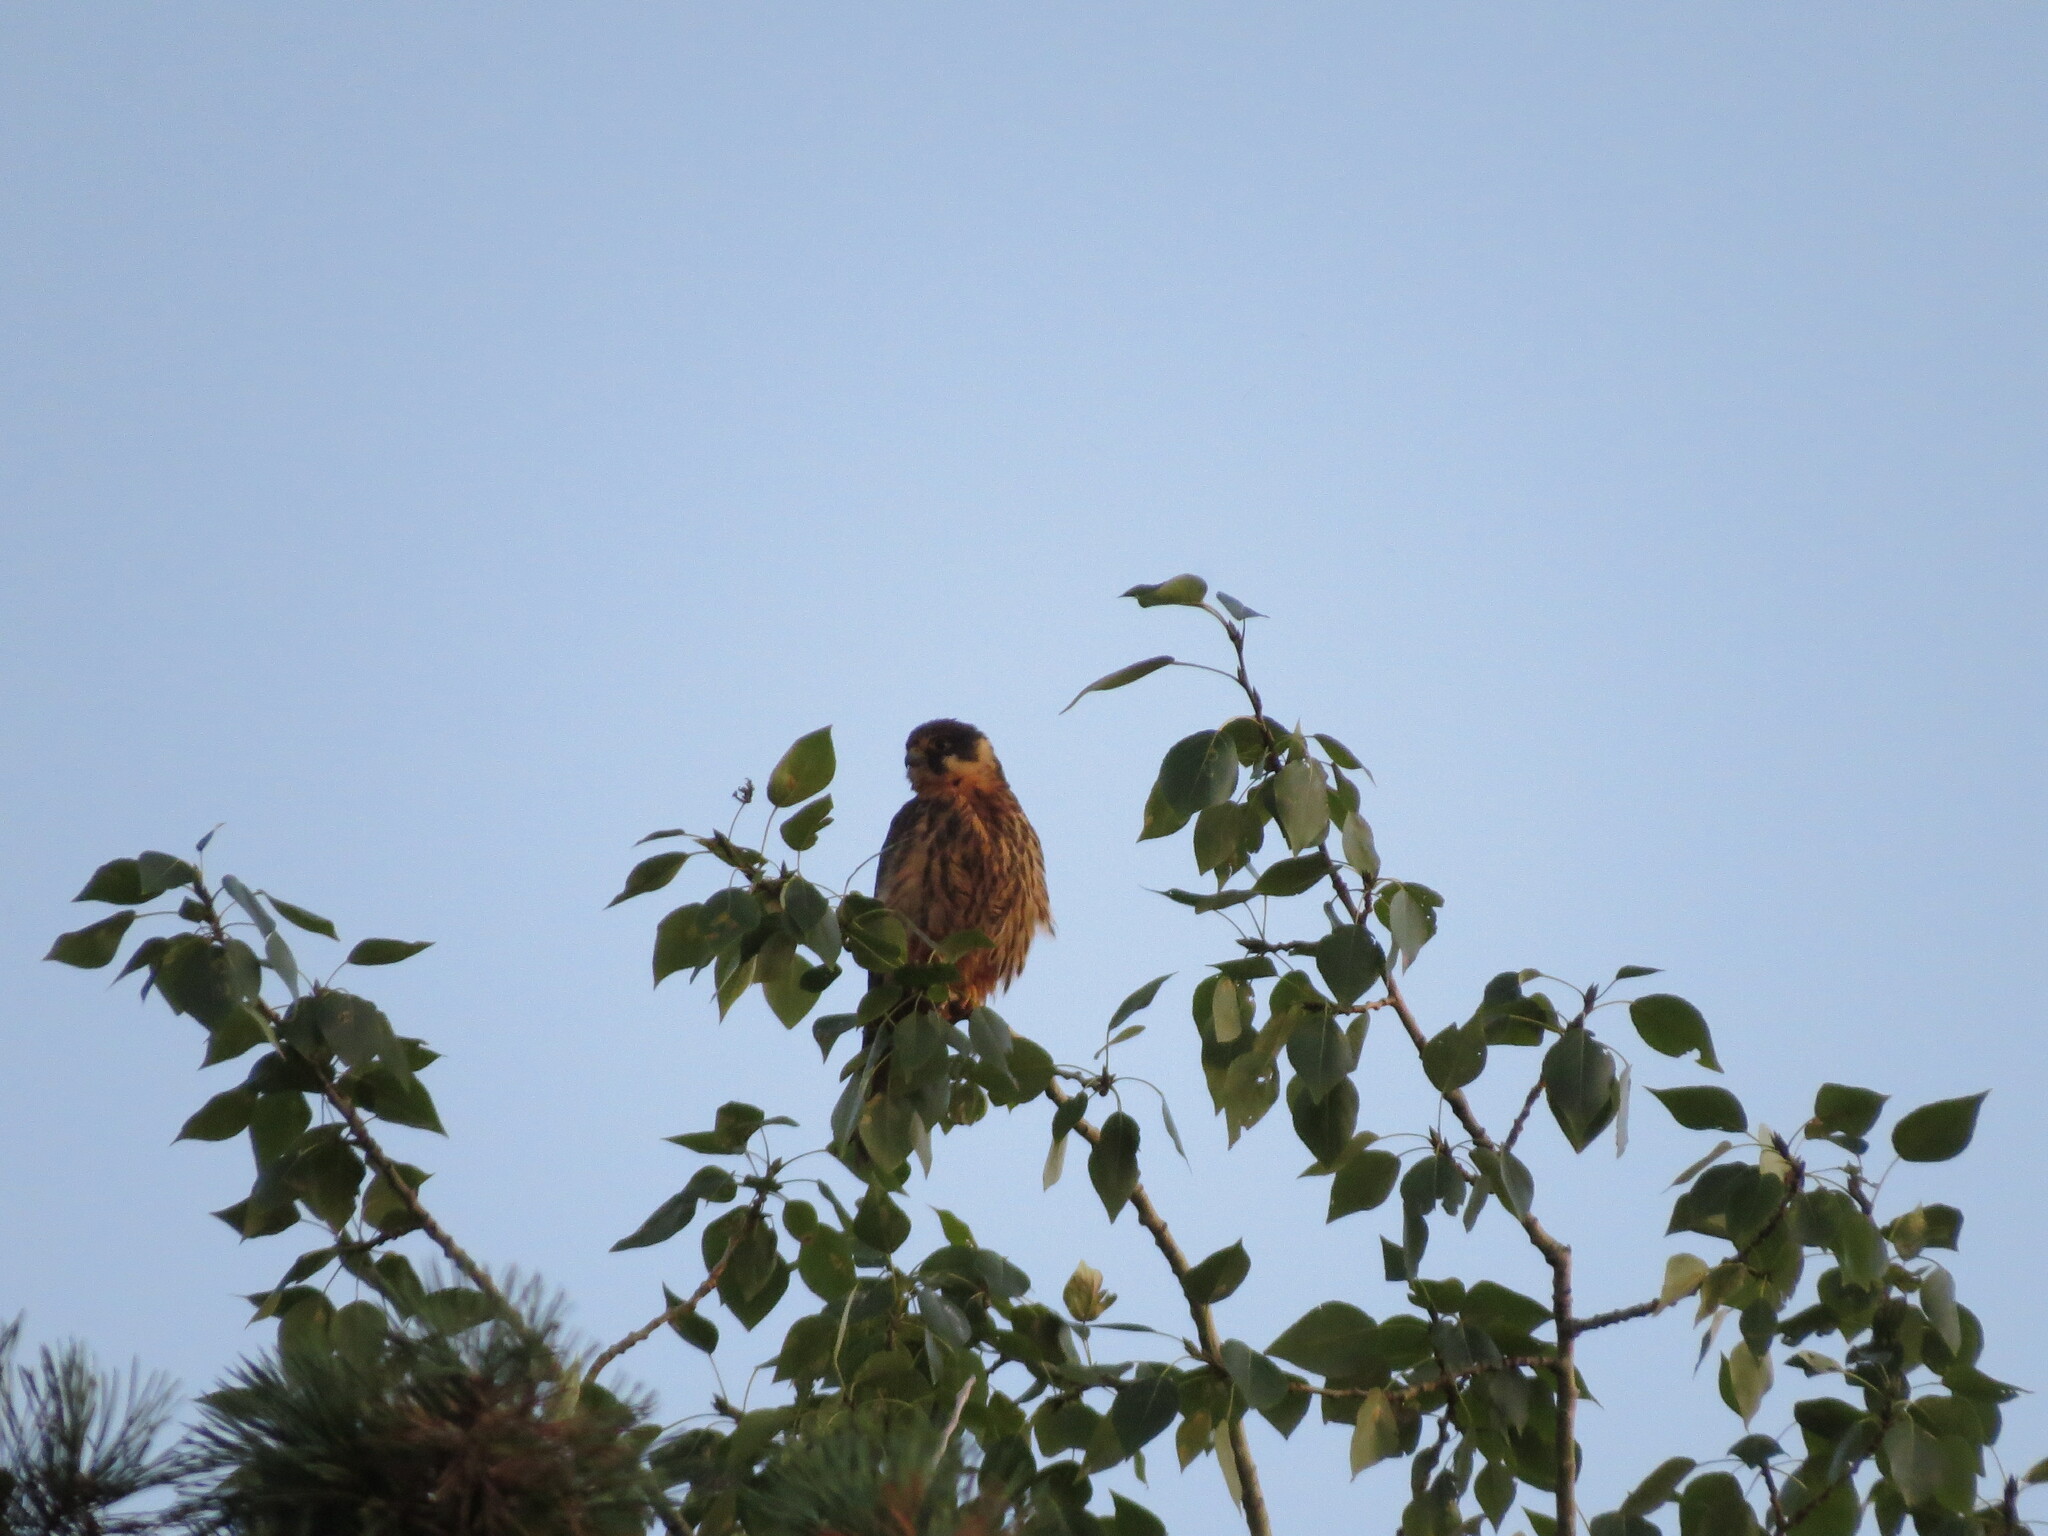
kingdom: Animalia
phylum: Chordata
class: Aves
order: Falconiformes
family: Falconidae
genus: Falco
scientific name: Falco subbuteo
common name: Eurasian hobby
